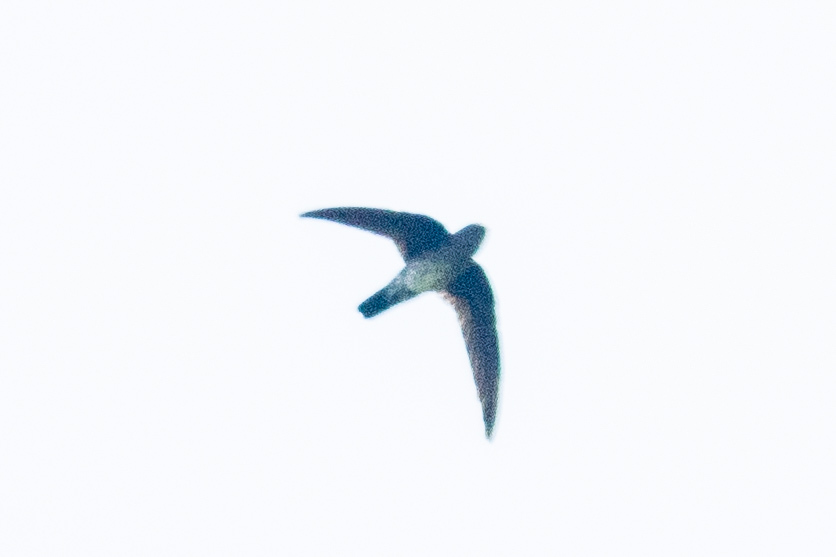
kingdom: Animalia
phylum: Chordata
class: Aves
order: Apodiformes
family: Apodidae
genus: Collocalia
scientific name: Collocalia affinis
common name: Plume-toed swiftlet
